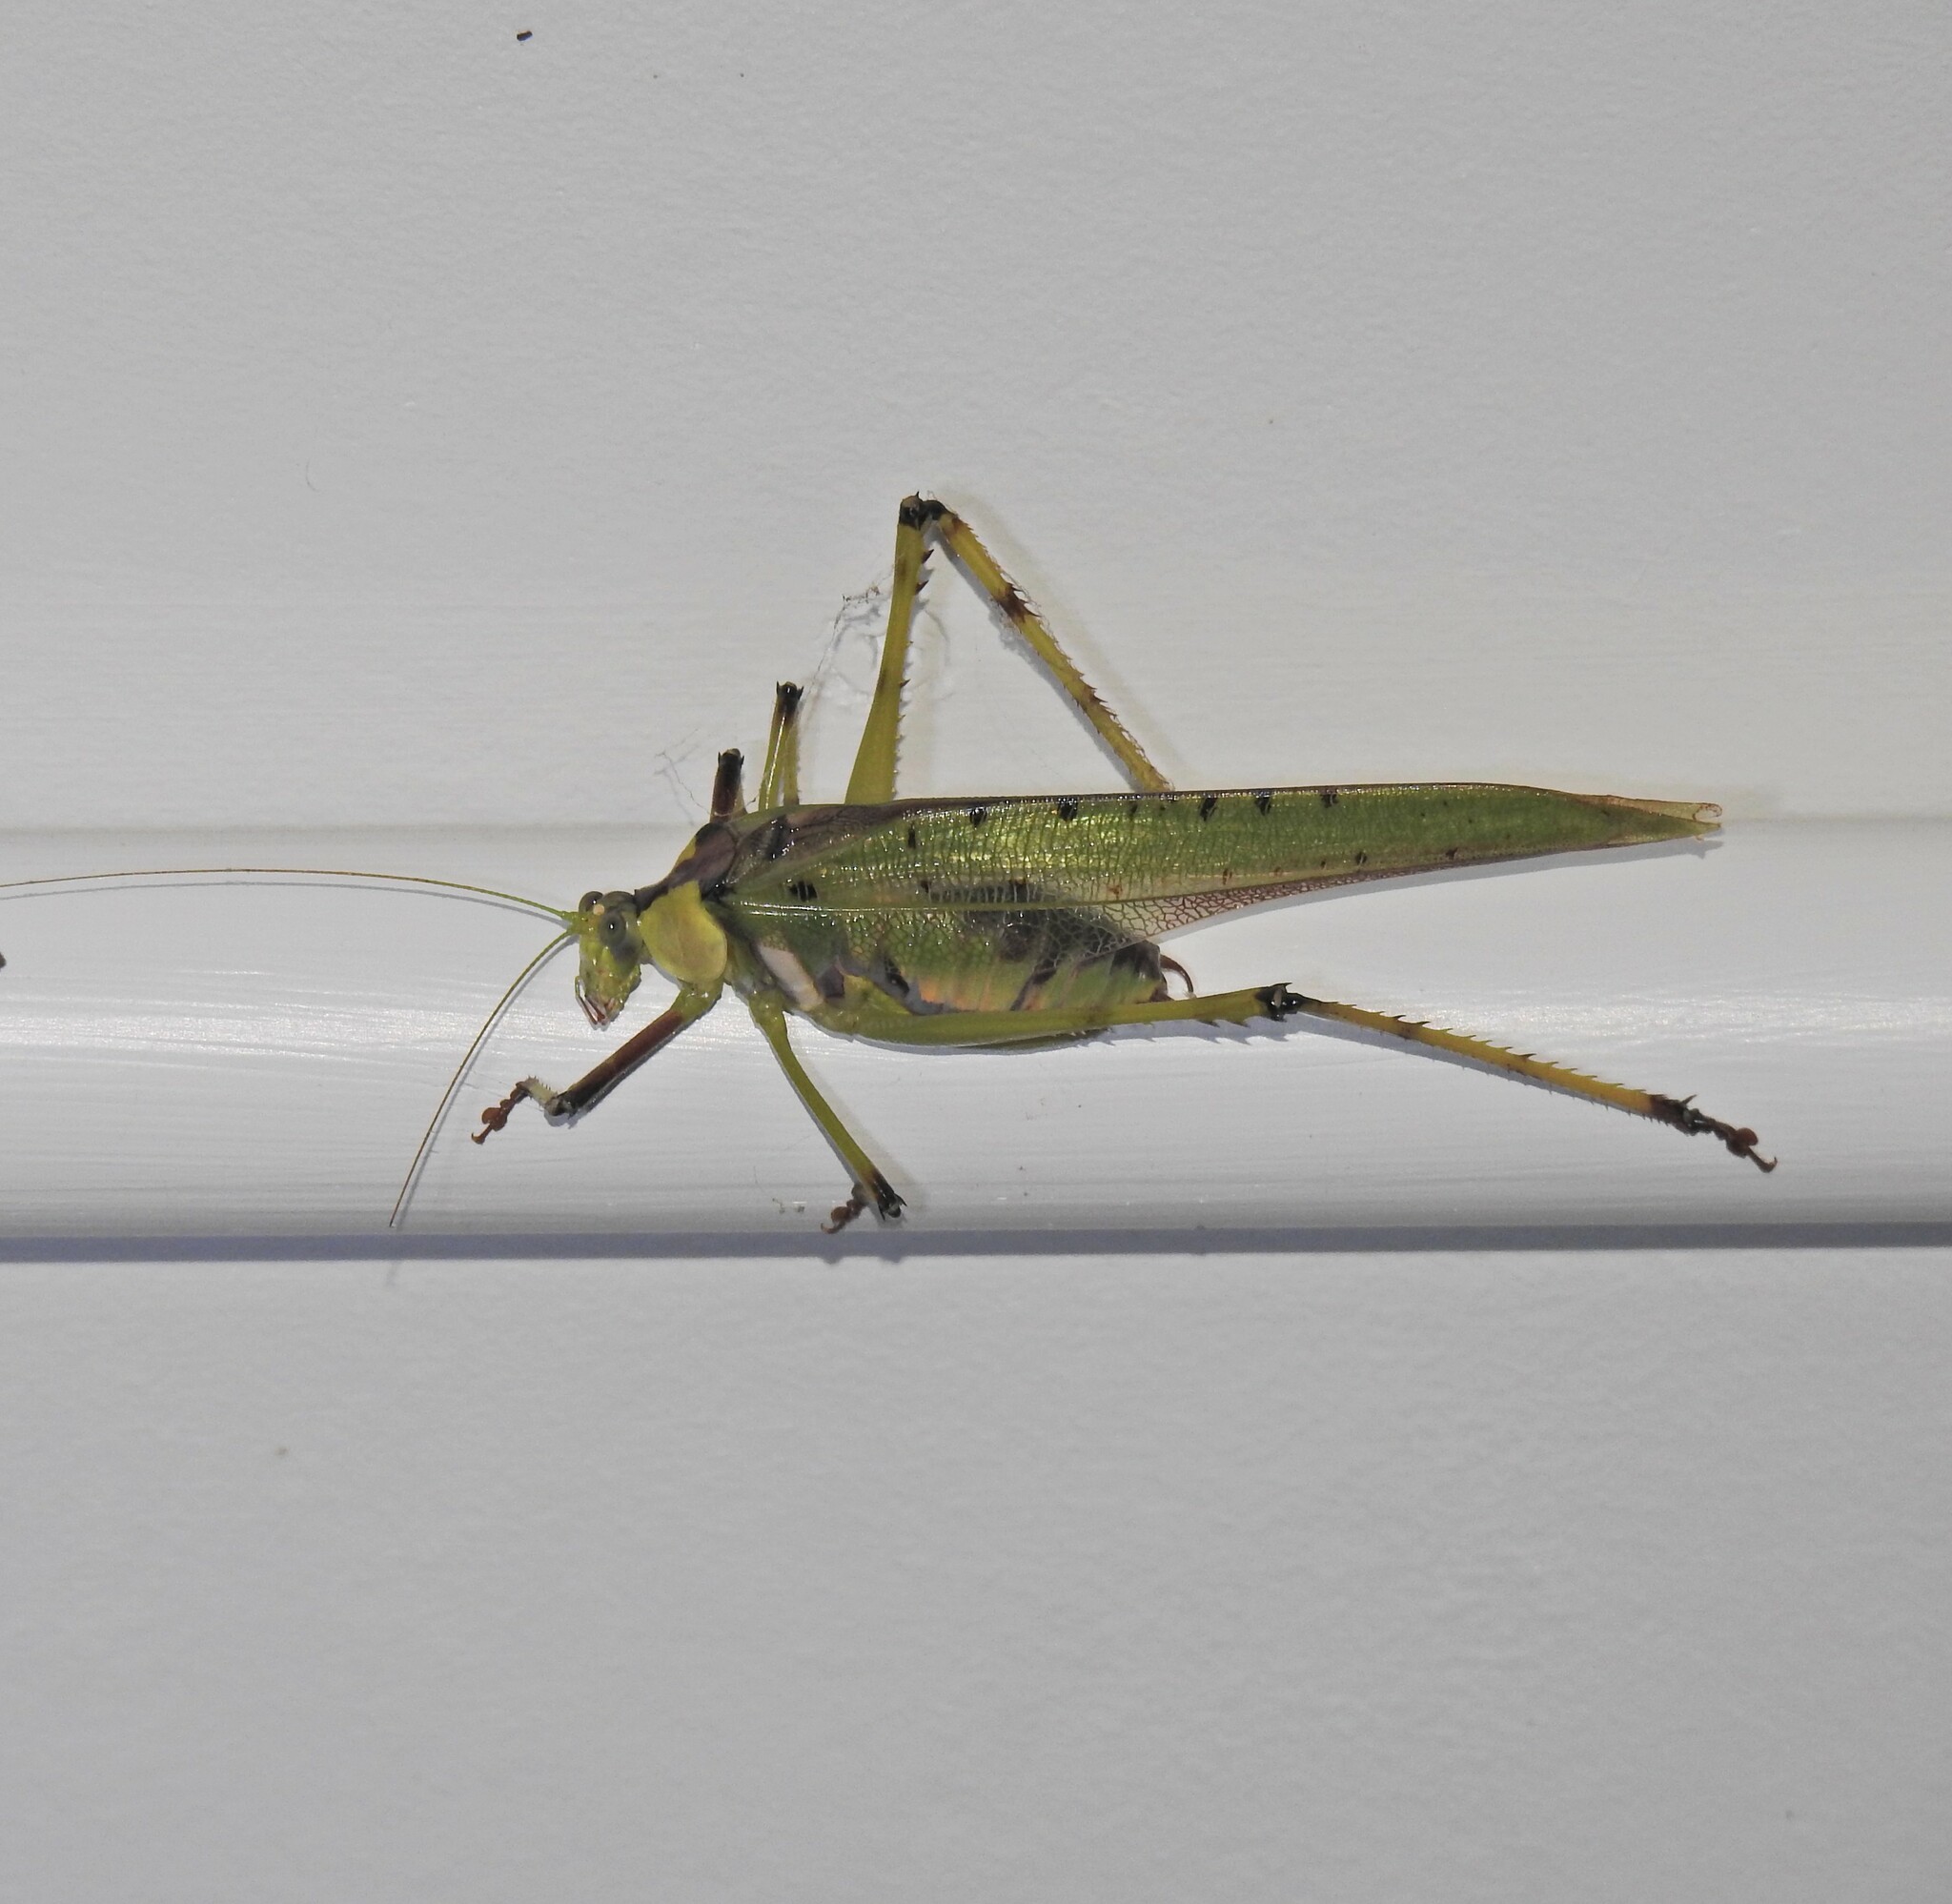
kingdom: Animalia
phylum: Arthropoda
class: Insecta
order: Orthoptera
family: Tettigoniidae
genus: Ephippitytha
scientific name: Ephippitytha trigintiduoguttata
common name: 32-spotted katydid
